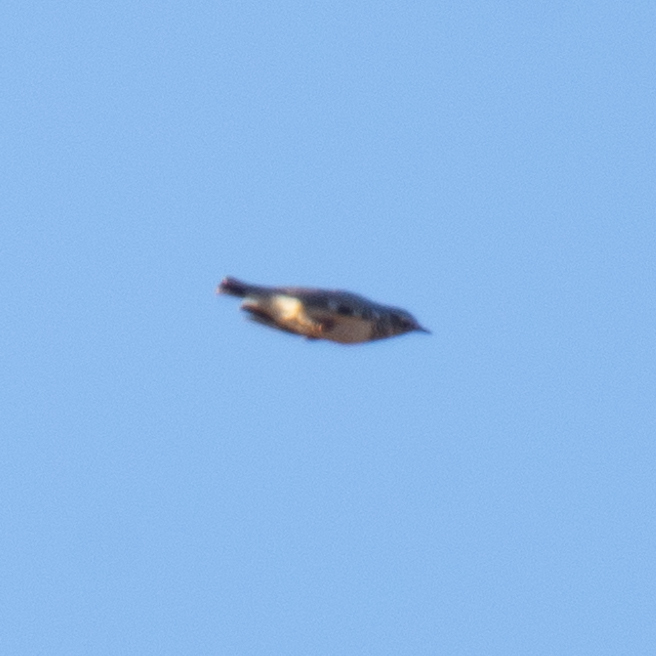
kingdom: Animalia
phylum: Chordata
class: Aves
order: Passeriformes
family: Alaudidae
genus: Lullula
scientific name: Lullula arborea
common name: Woodlark
